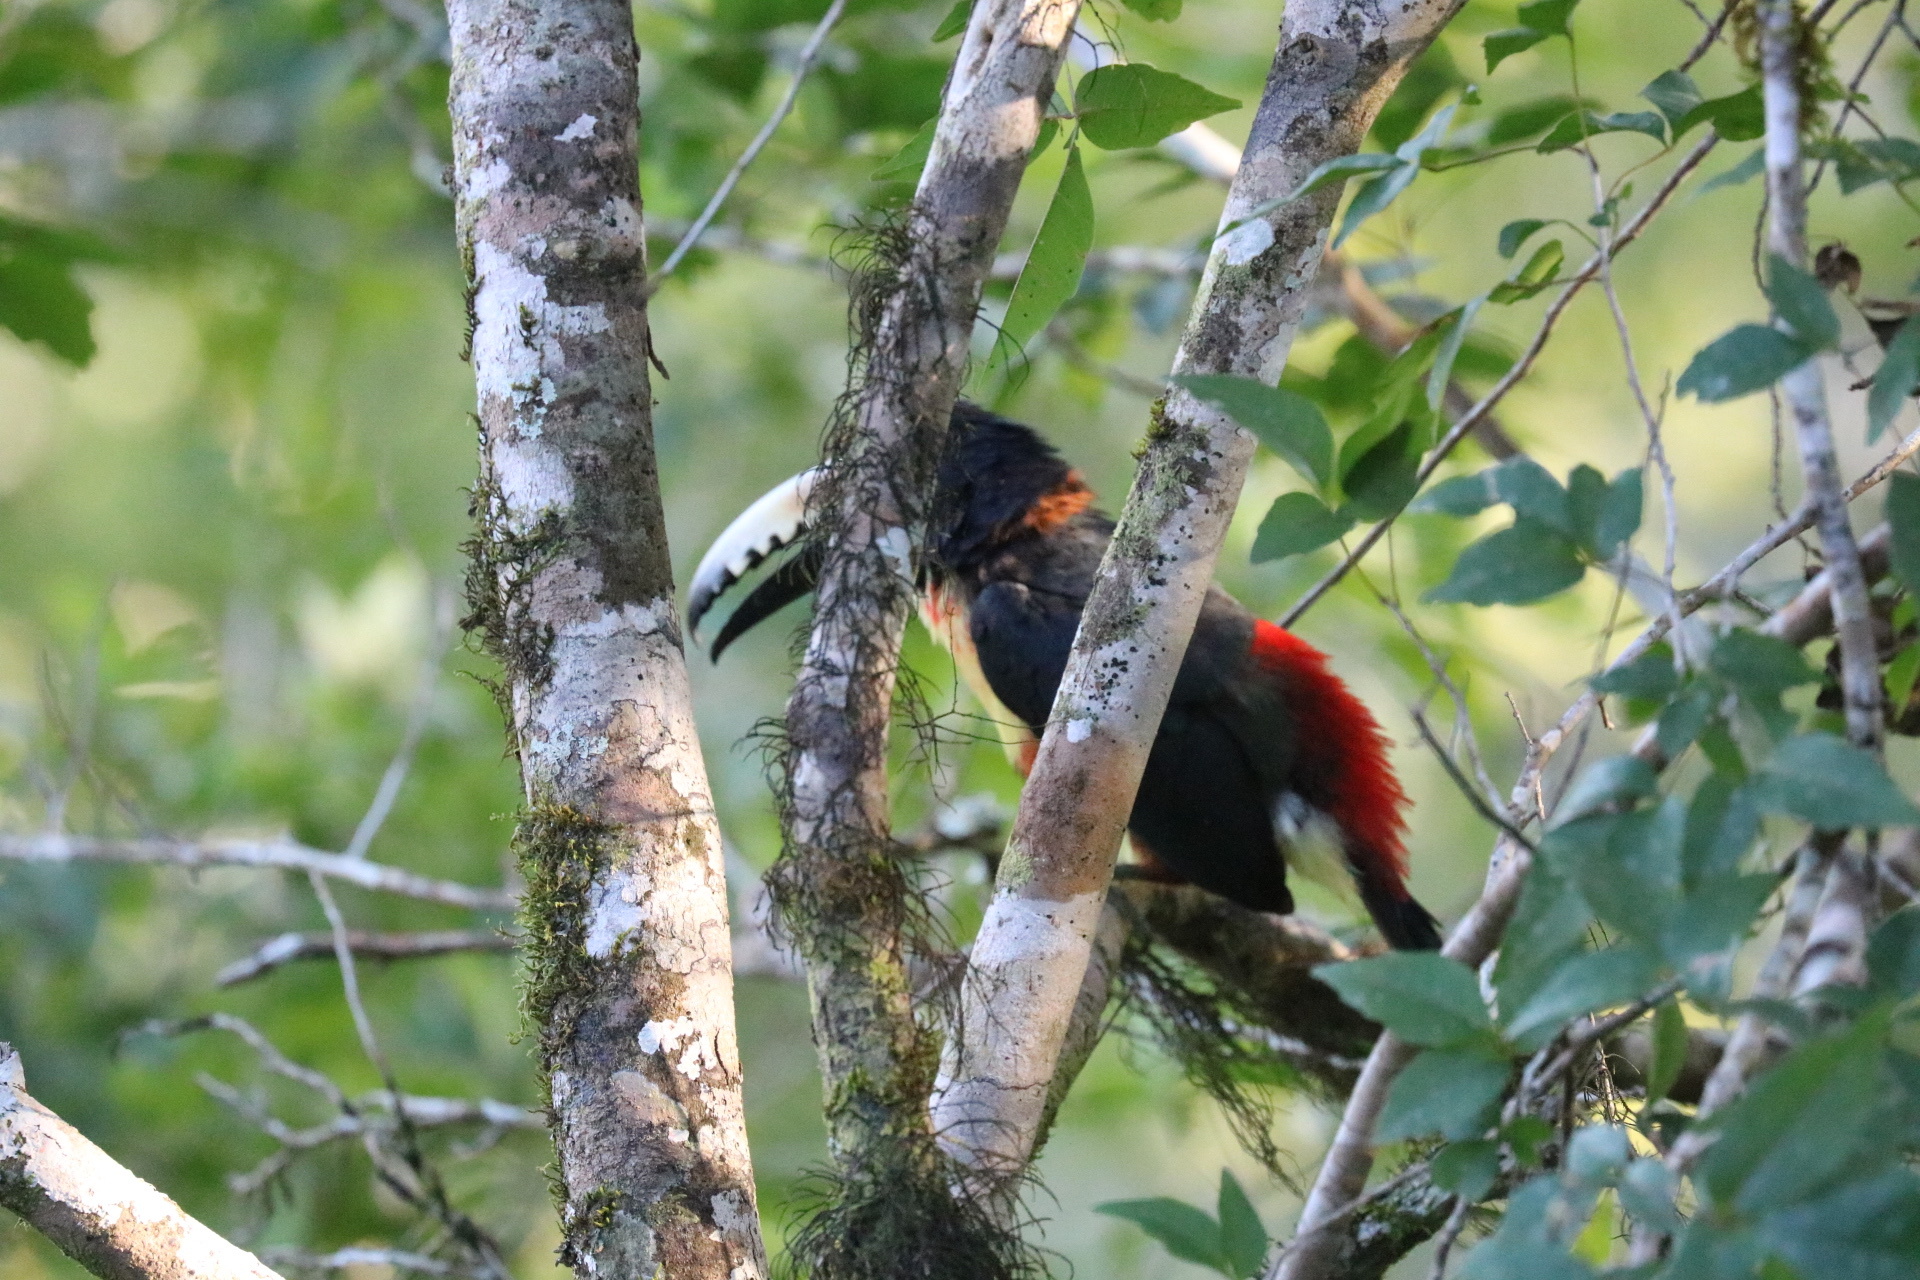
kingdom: Animalia
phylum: Chordata
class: Aves
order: Piciformes
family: Ramphastidae
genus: Pteroglossus
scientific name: Pteroglossus torquatus
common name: Collared aracari
